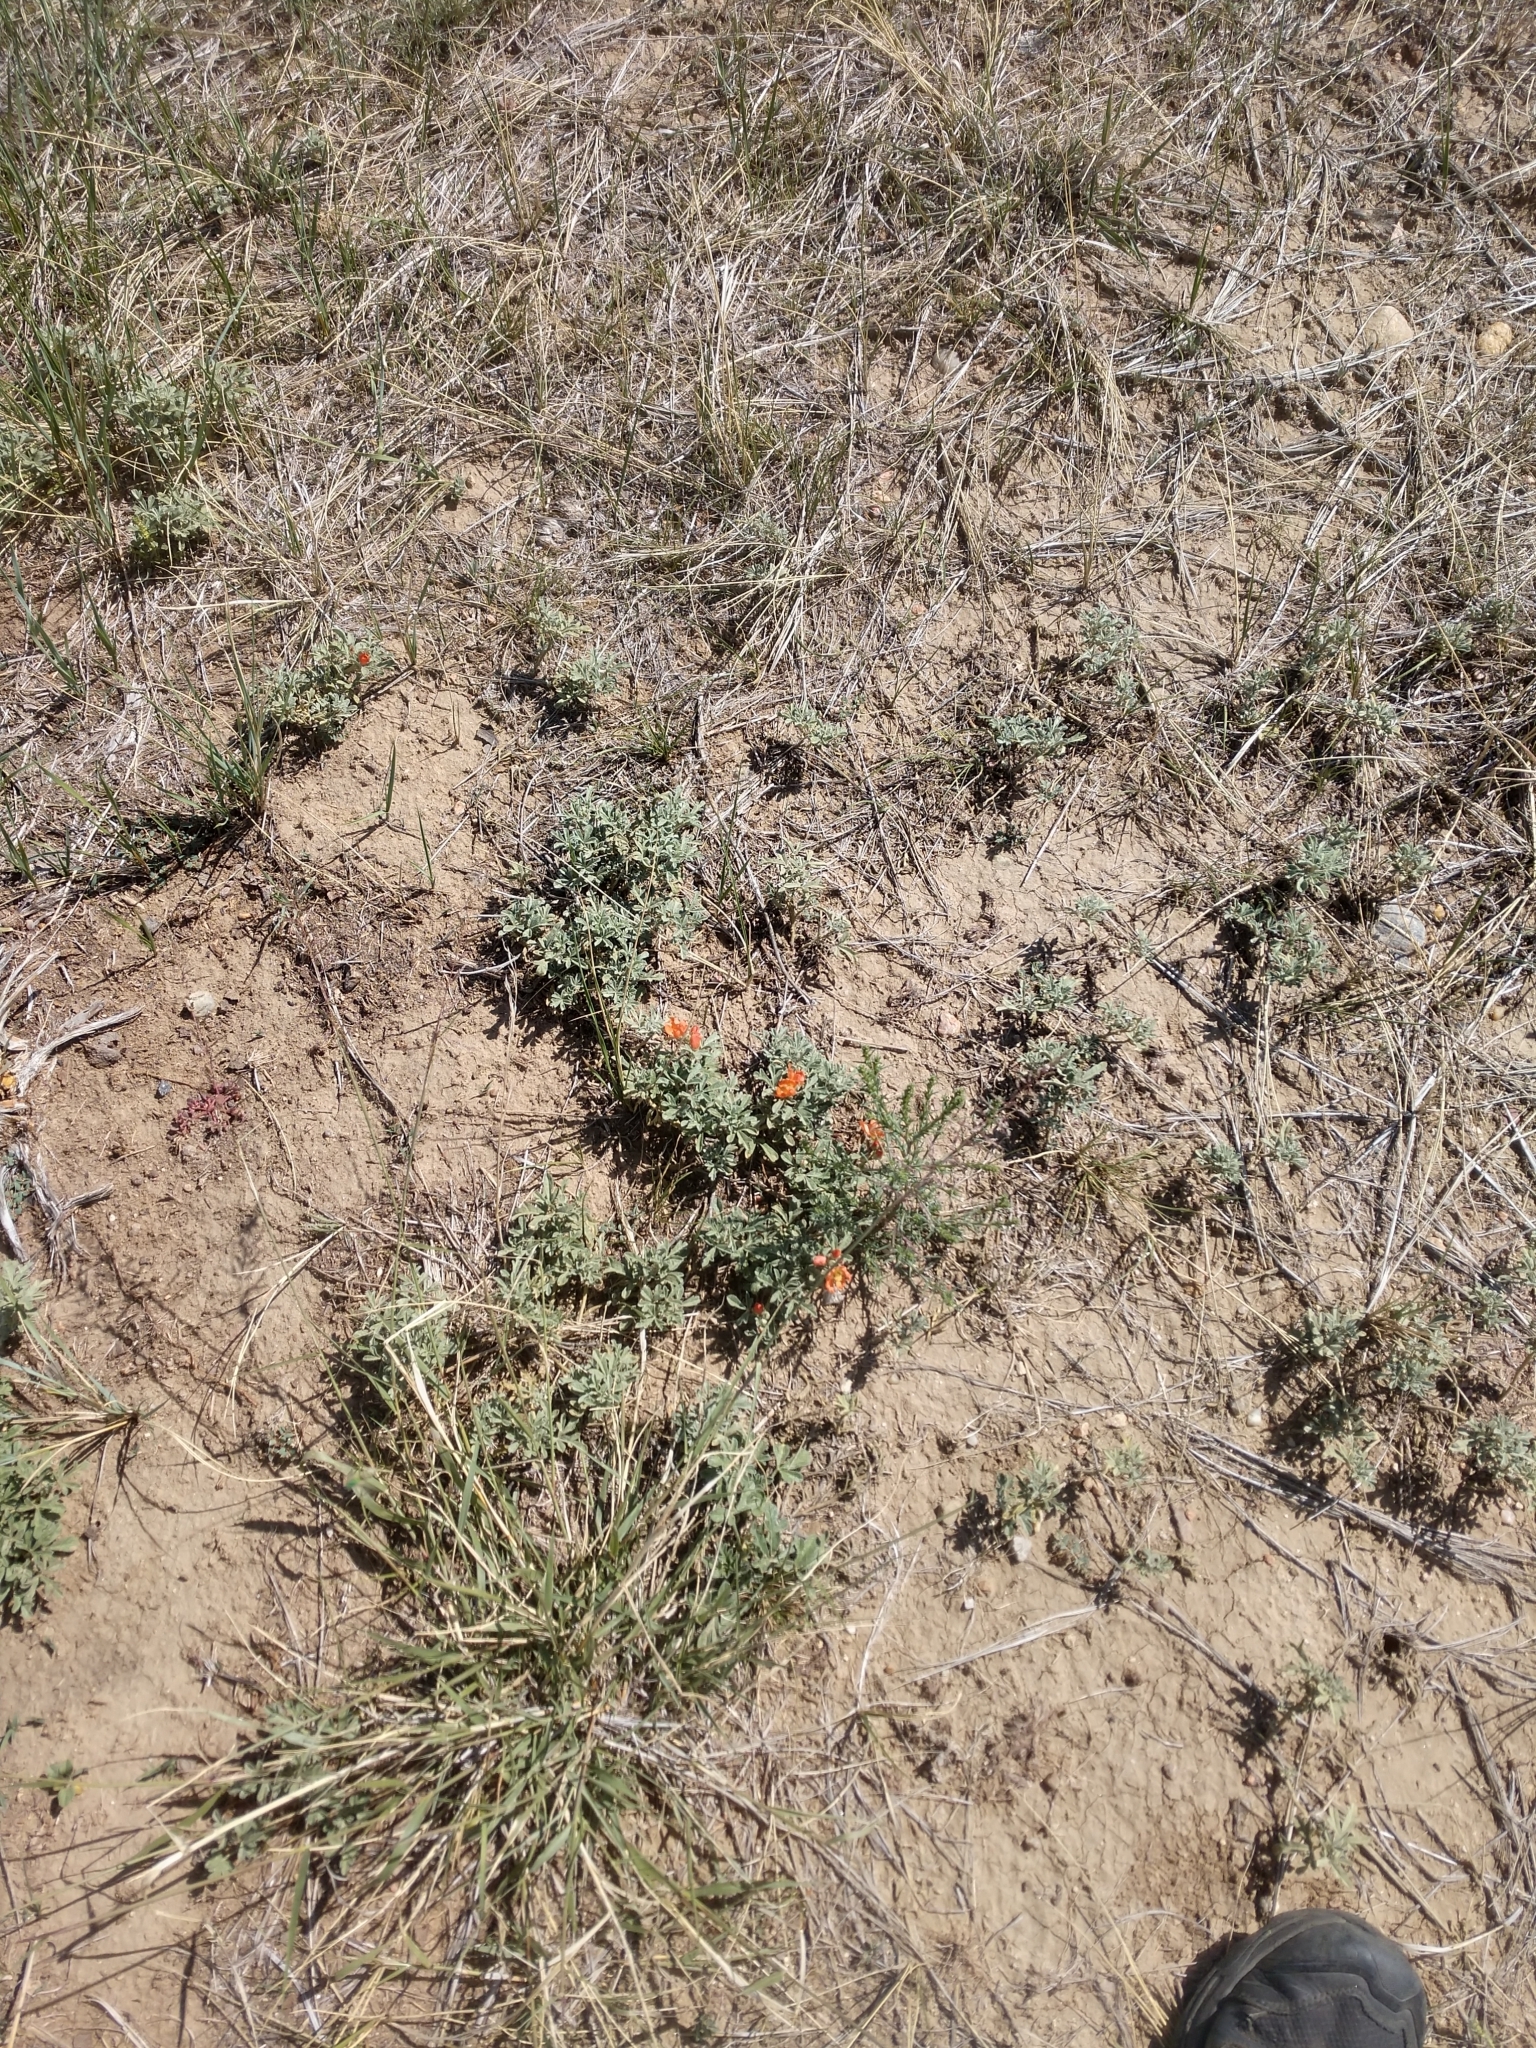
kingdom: Plantae
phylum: Tracheophyta
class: Magnoliopsida
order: Malvales
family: Malvaceae
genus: Sphaeralcea
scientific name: Sphaeralcea coccinea
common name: Moss-rose
